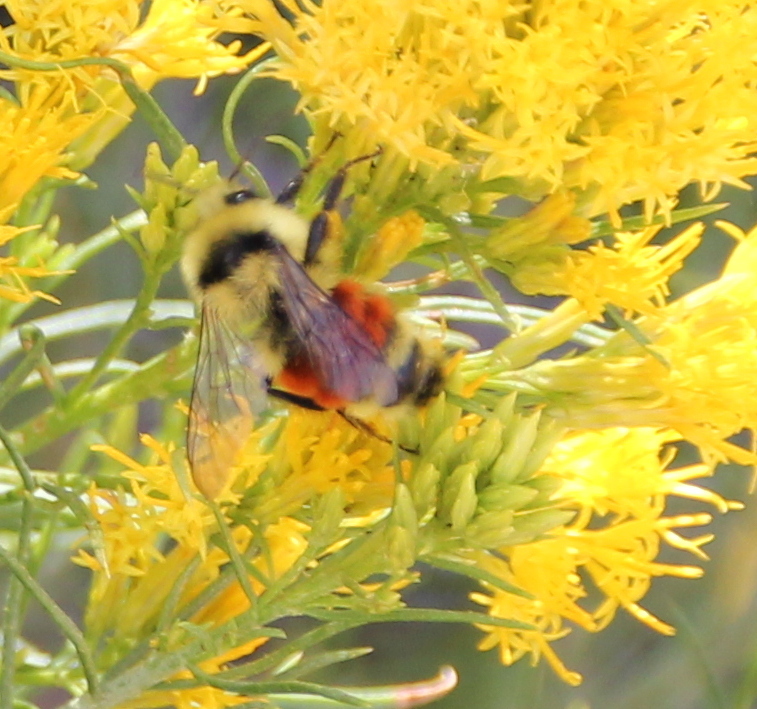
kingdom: Animalia
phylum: Arthropoda
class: Insecta
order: Hymenoptera
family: Apidae
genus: Bombus
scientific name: Bombus huntii
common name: Hunt bumble bee
